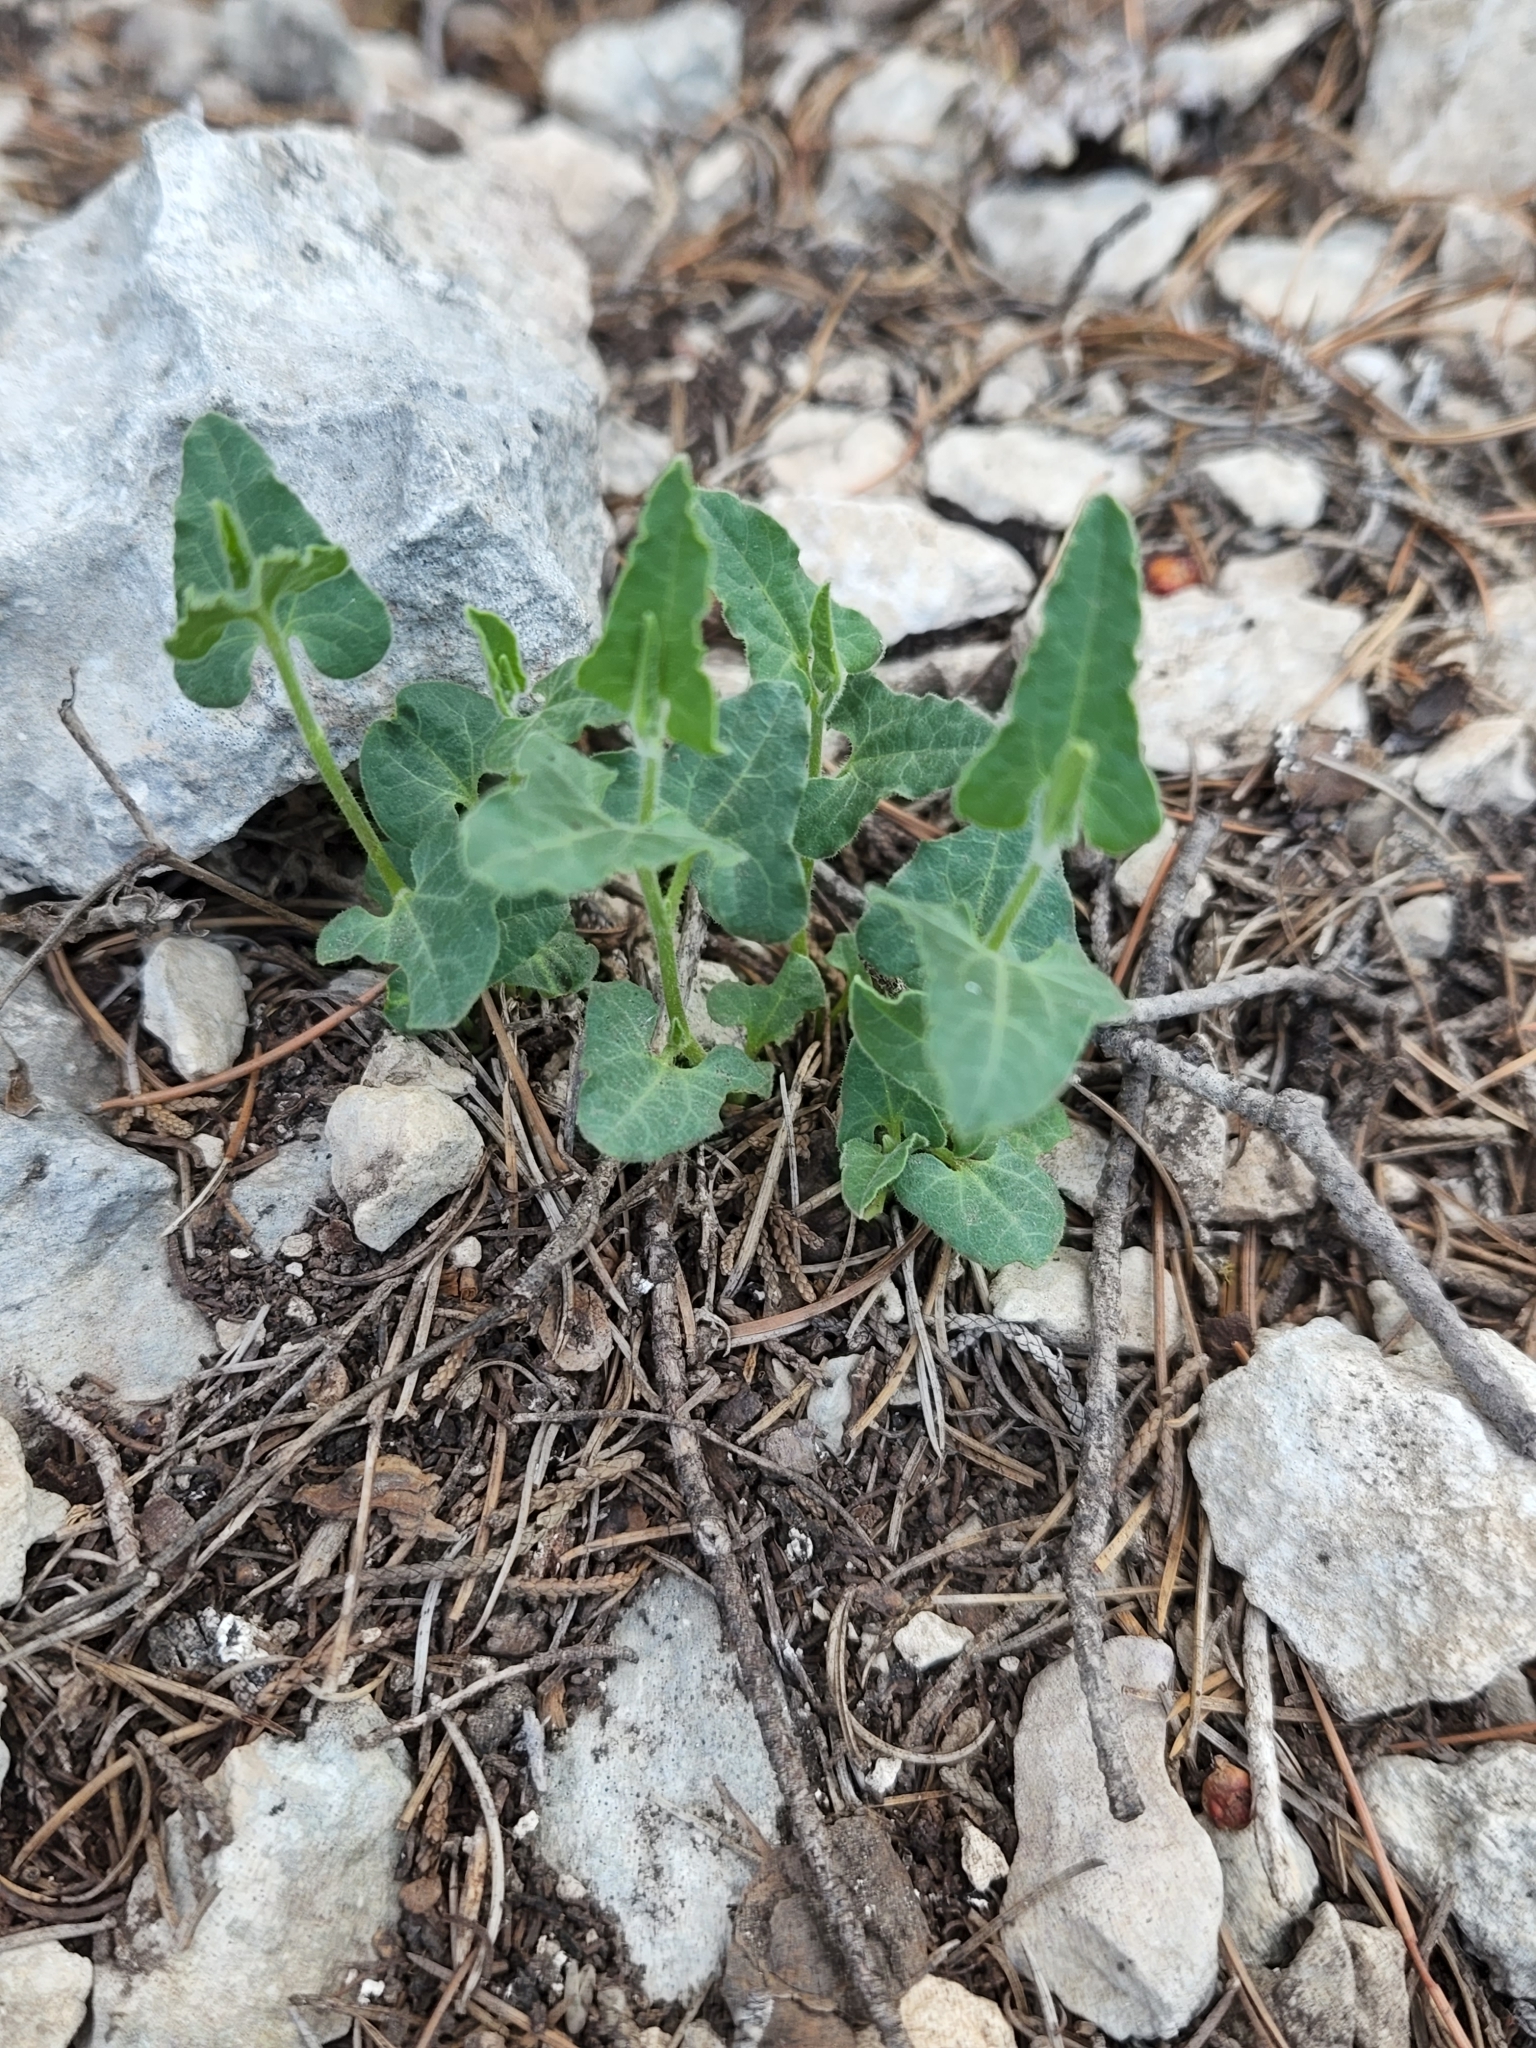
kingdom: Plantae
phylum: Tracheophyta
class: Magnoliopsida
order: Piperales
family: Aristolochiaceae
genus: Aristolochia
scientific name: Aristolochia coryi
